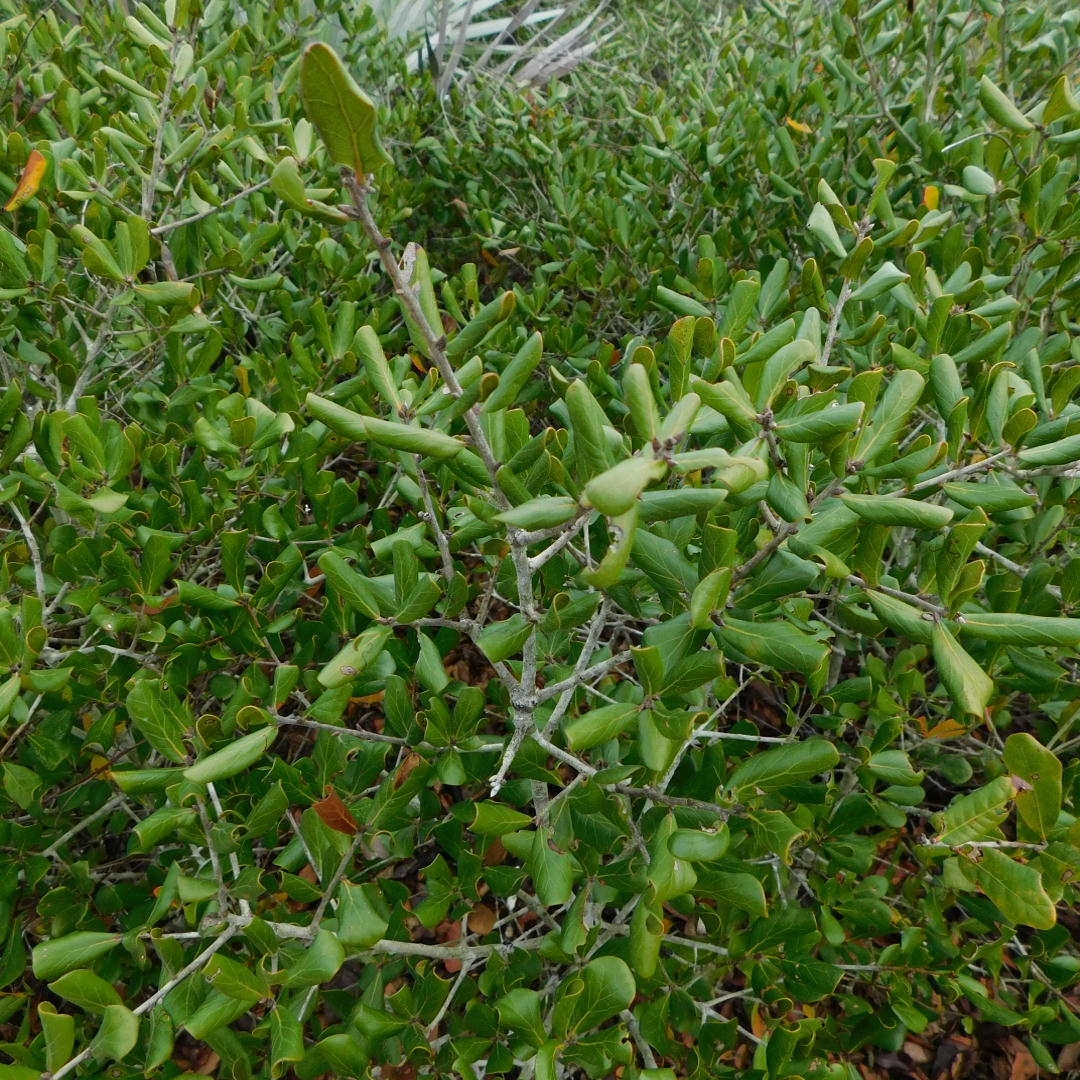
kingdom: Plantae
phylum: Tracheophyta
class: Magnoliopsida
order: Fagales
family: Fagaceae
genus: Quercus
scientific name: Quercus inopina
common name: Sandhill oak
